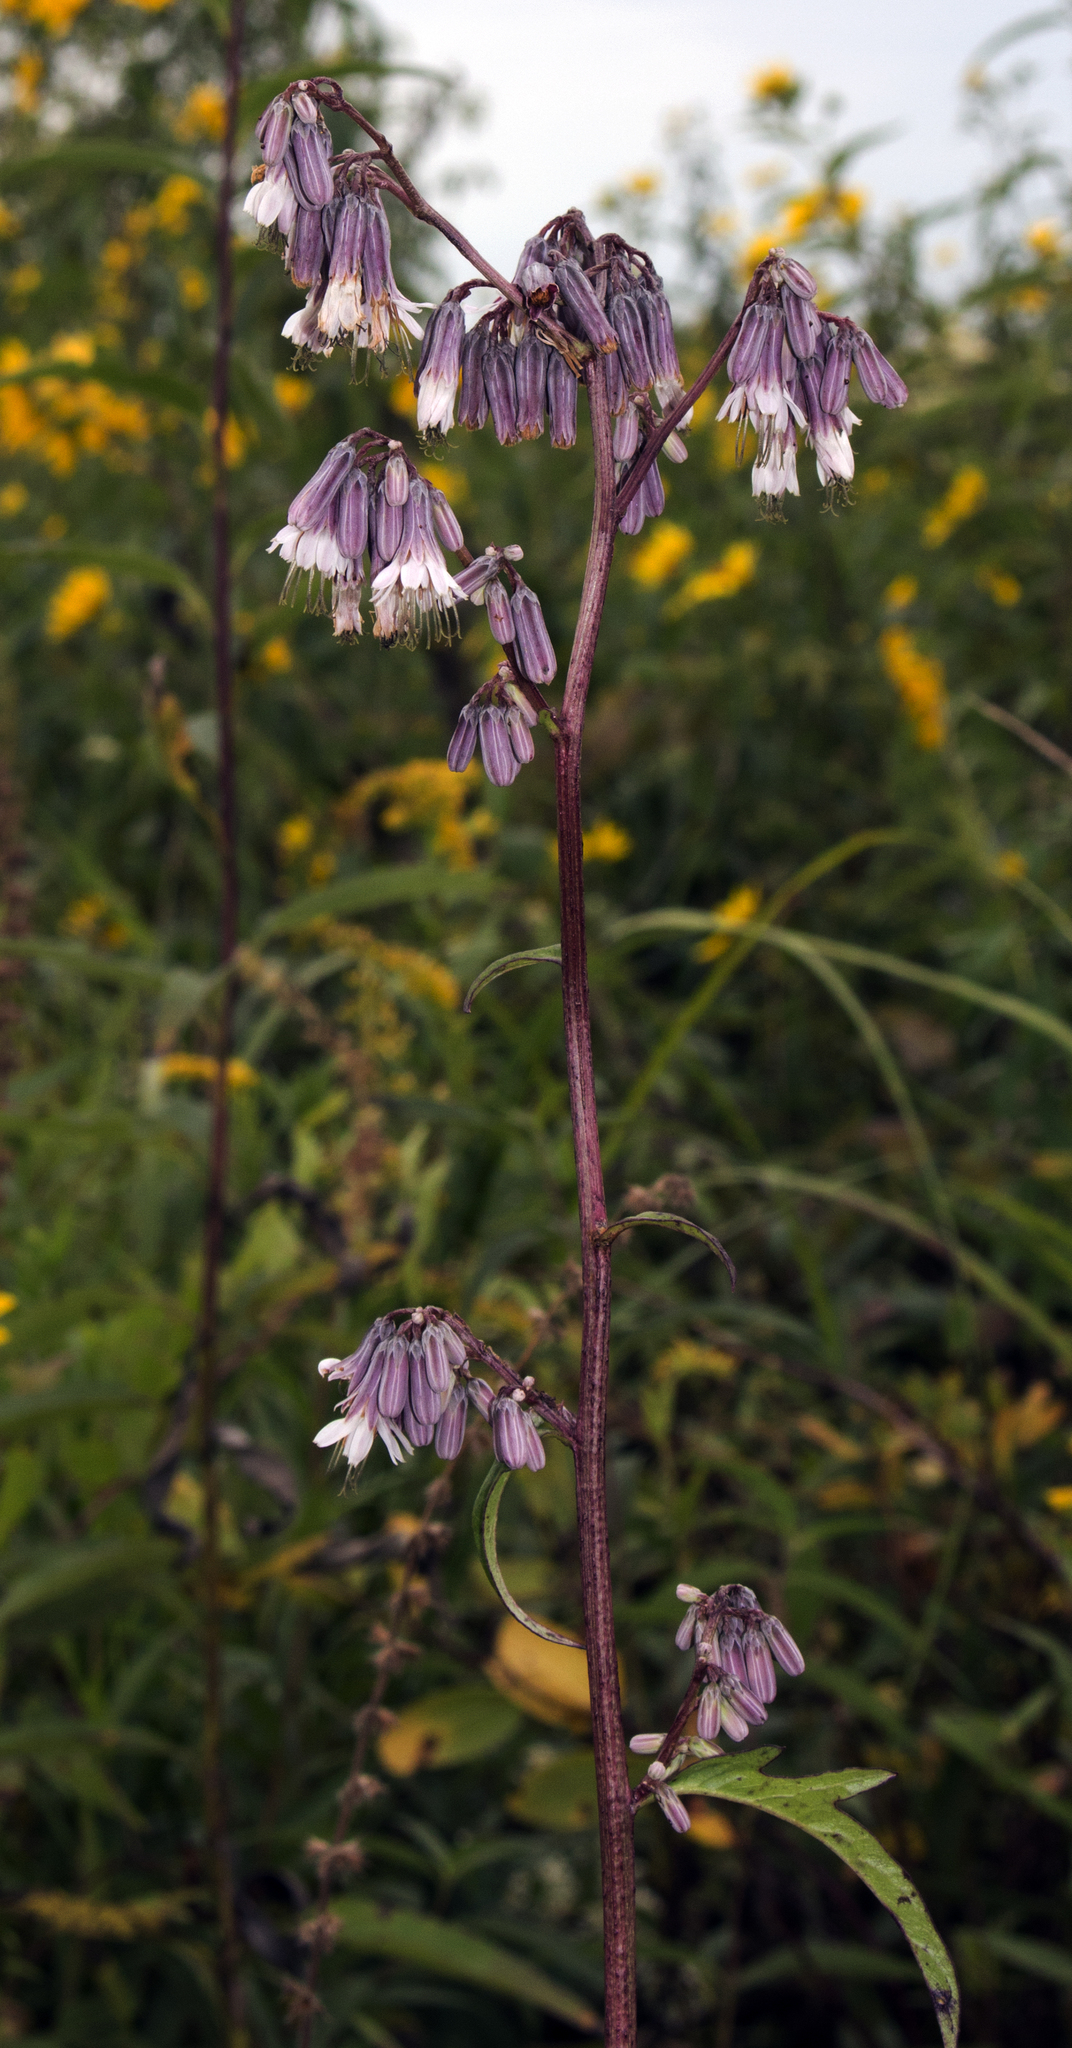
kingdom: Plantae
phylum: Tracheophyta
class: Magnoliopsida
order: Asterales
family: Asteraceae
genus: Nabalus
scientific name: Nabalus albus
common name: White rattlesnakeroot
